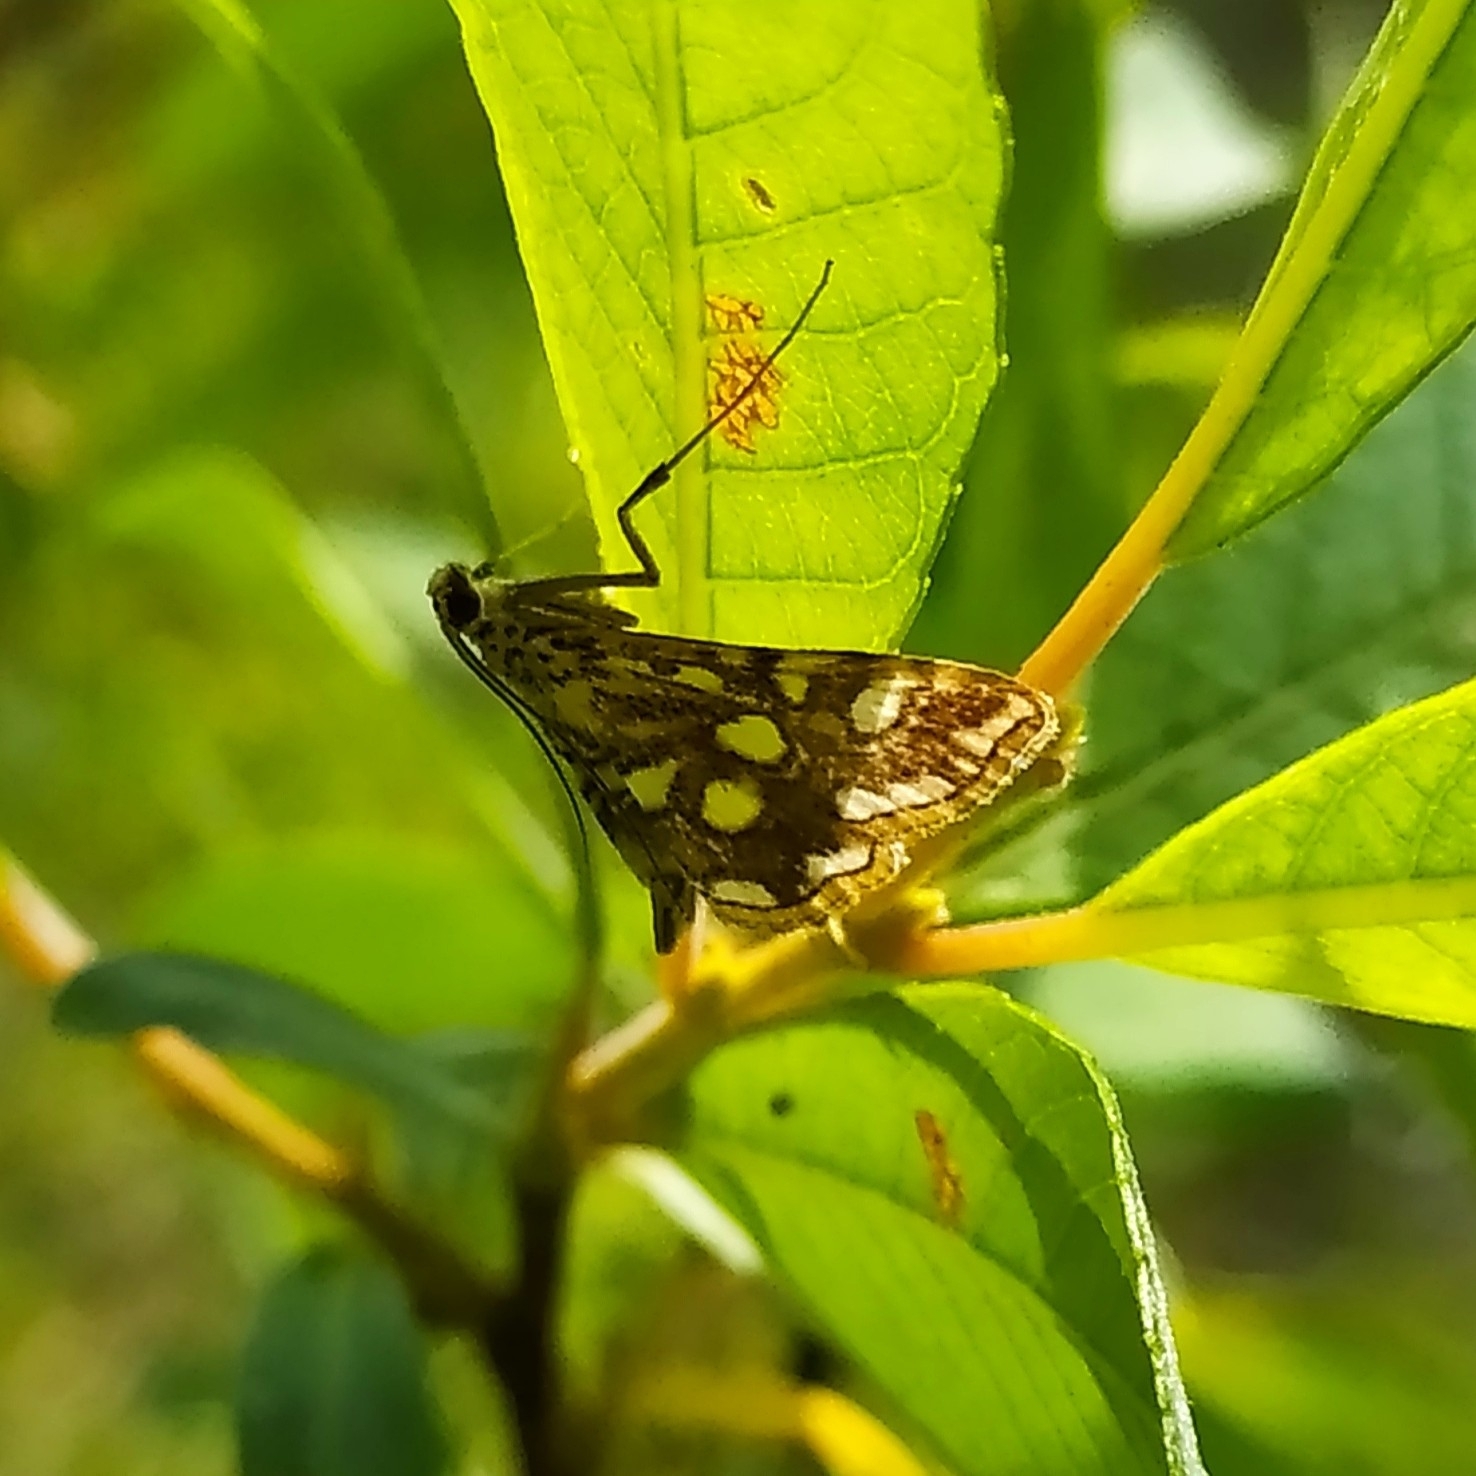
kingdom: Animalia
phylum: Arthropoda
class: Insecta
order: Lepidoptera
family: Crambidae
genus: Elophila
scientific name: Elophila nymphaeata
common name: Brown china-mark
